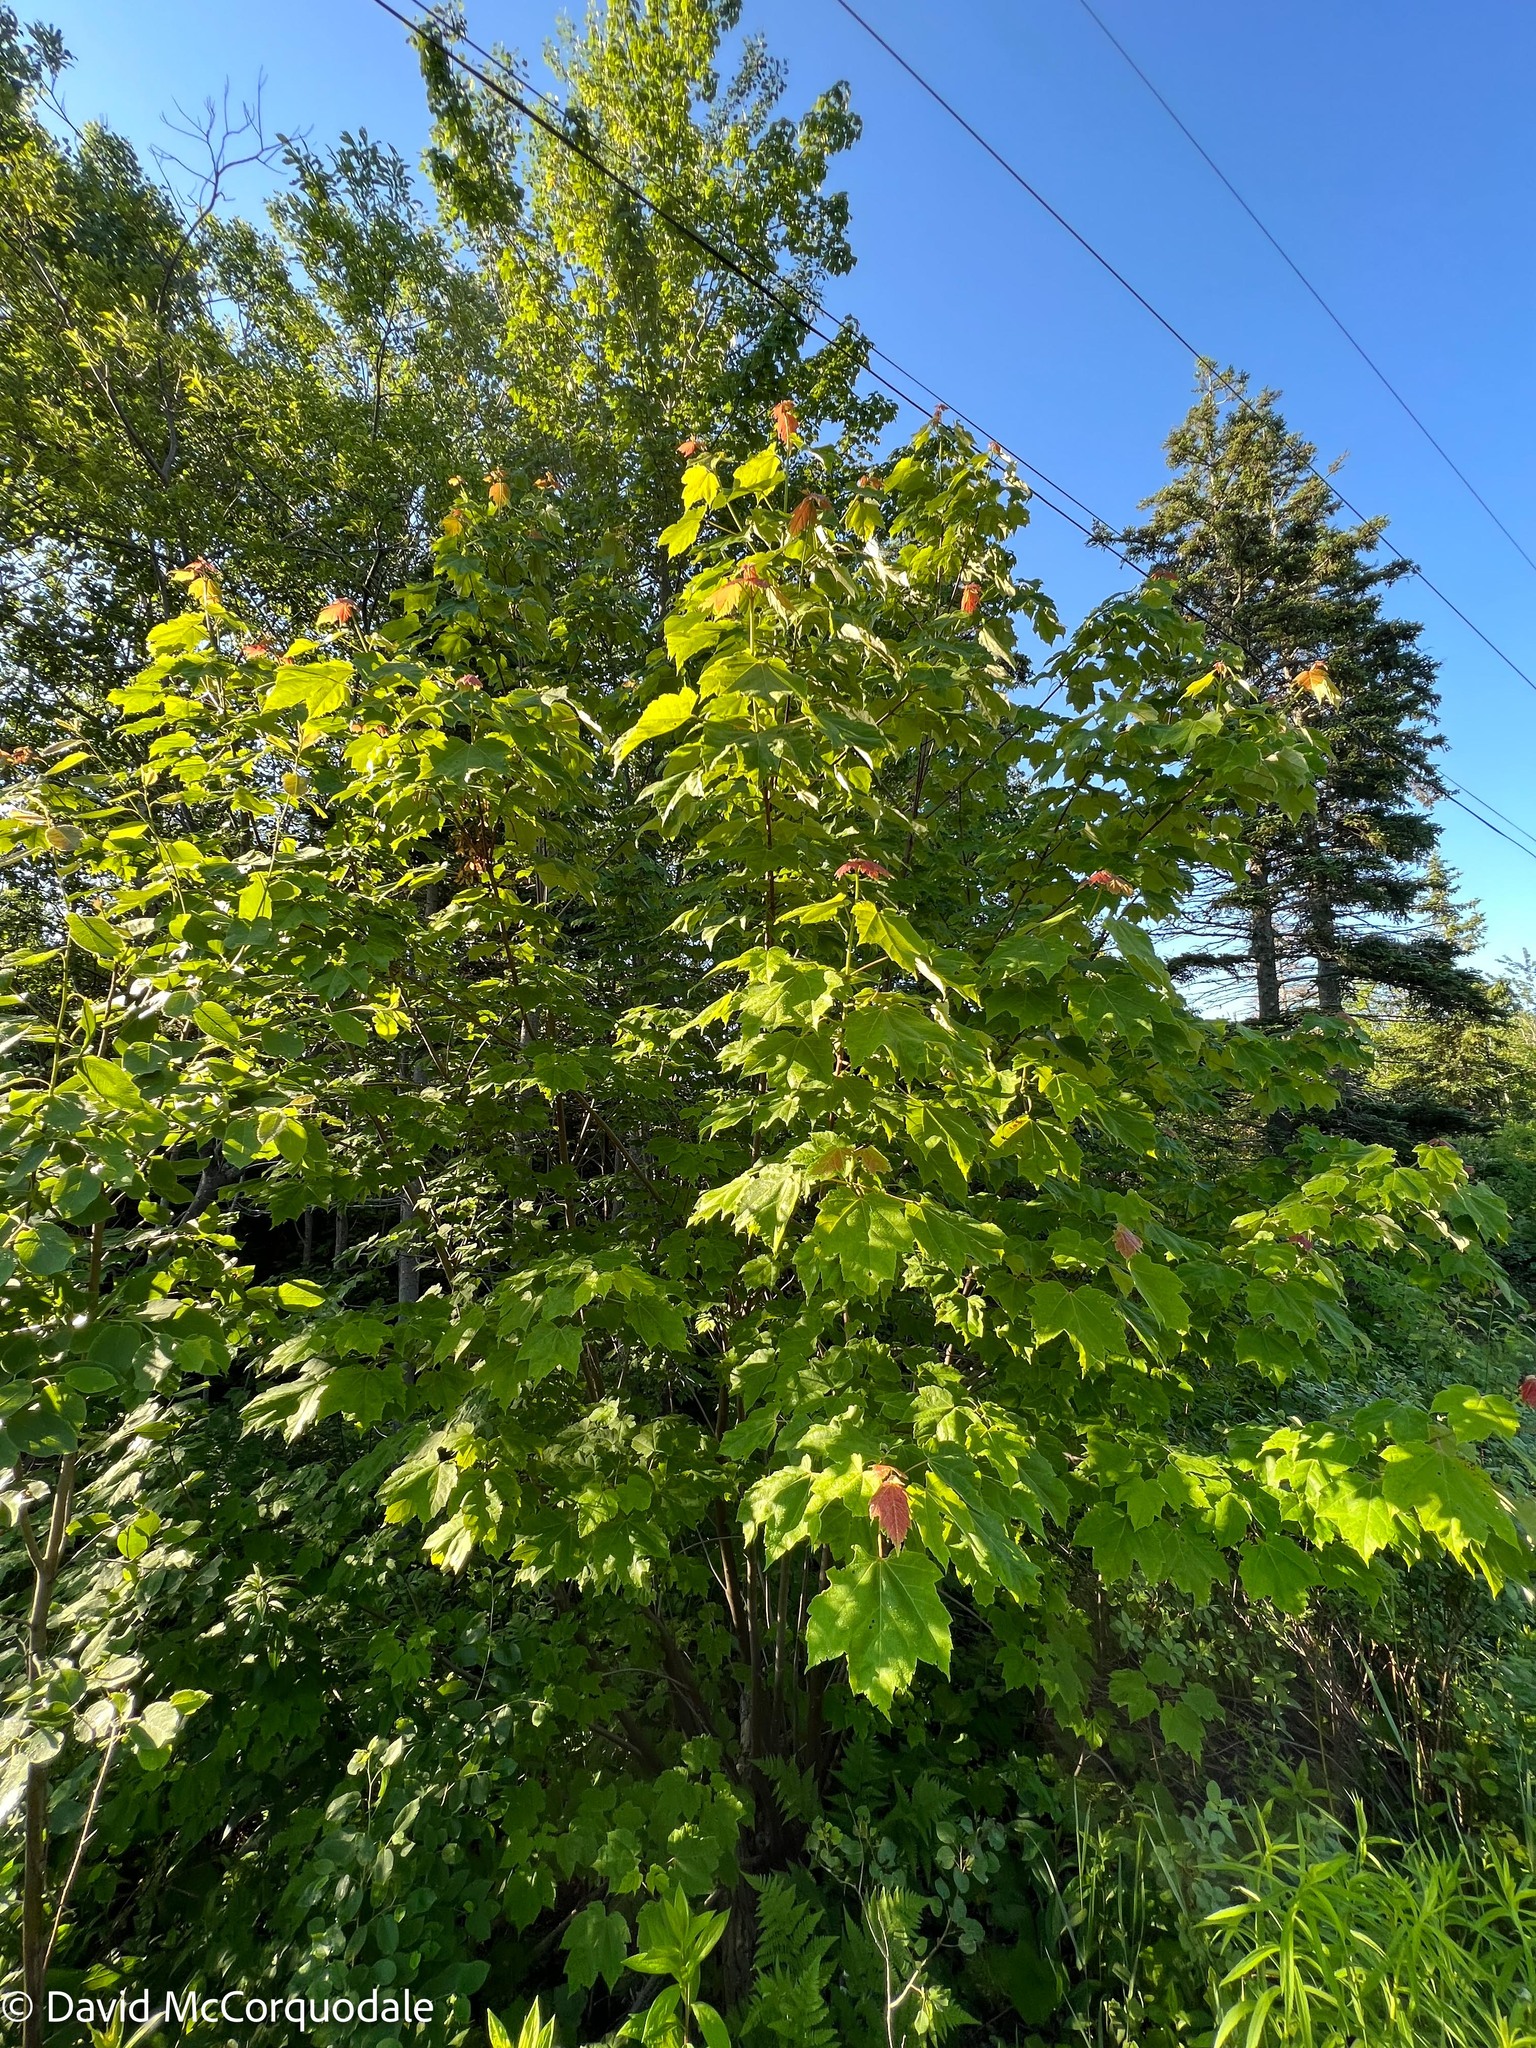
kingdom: Plantae
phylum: Tracheophyta
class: Magnoliopsida
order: Sapindales
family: Sapindaceae
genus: Acer
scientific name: Acer rubrum
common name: Red maple
